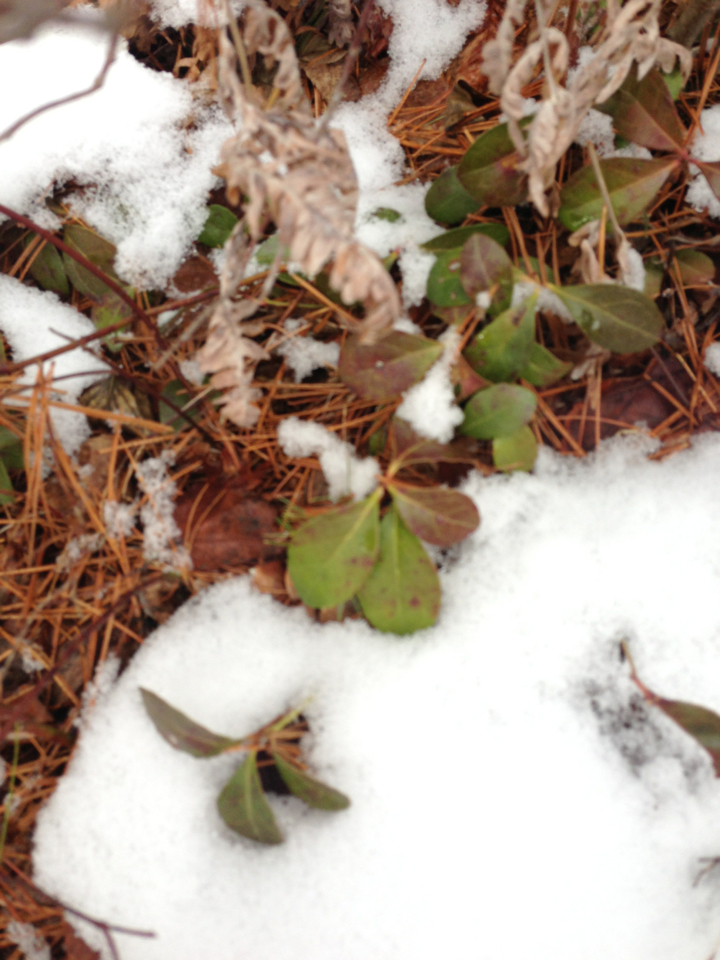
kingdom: Plantae
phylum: Tracheophyta
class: Magnoliopsida
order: Ericales
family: Ericaceae
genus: Gaultheria
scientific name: Gaultheria procumbens
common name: Checkerberry
